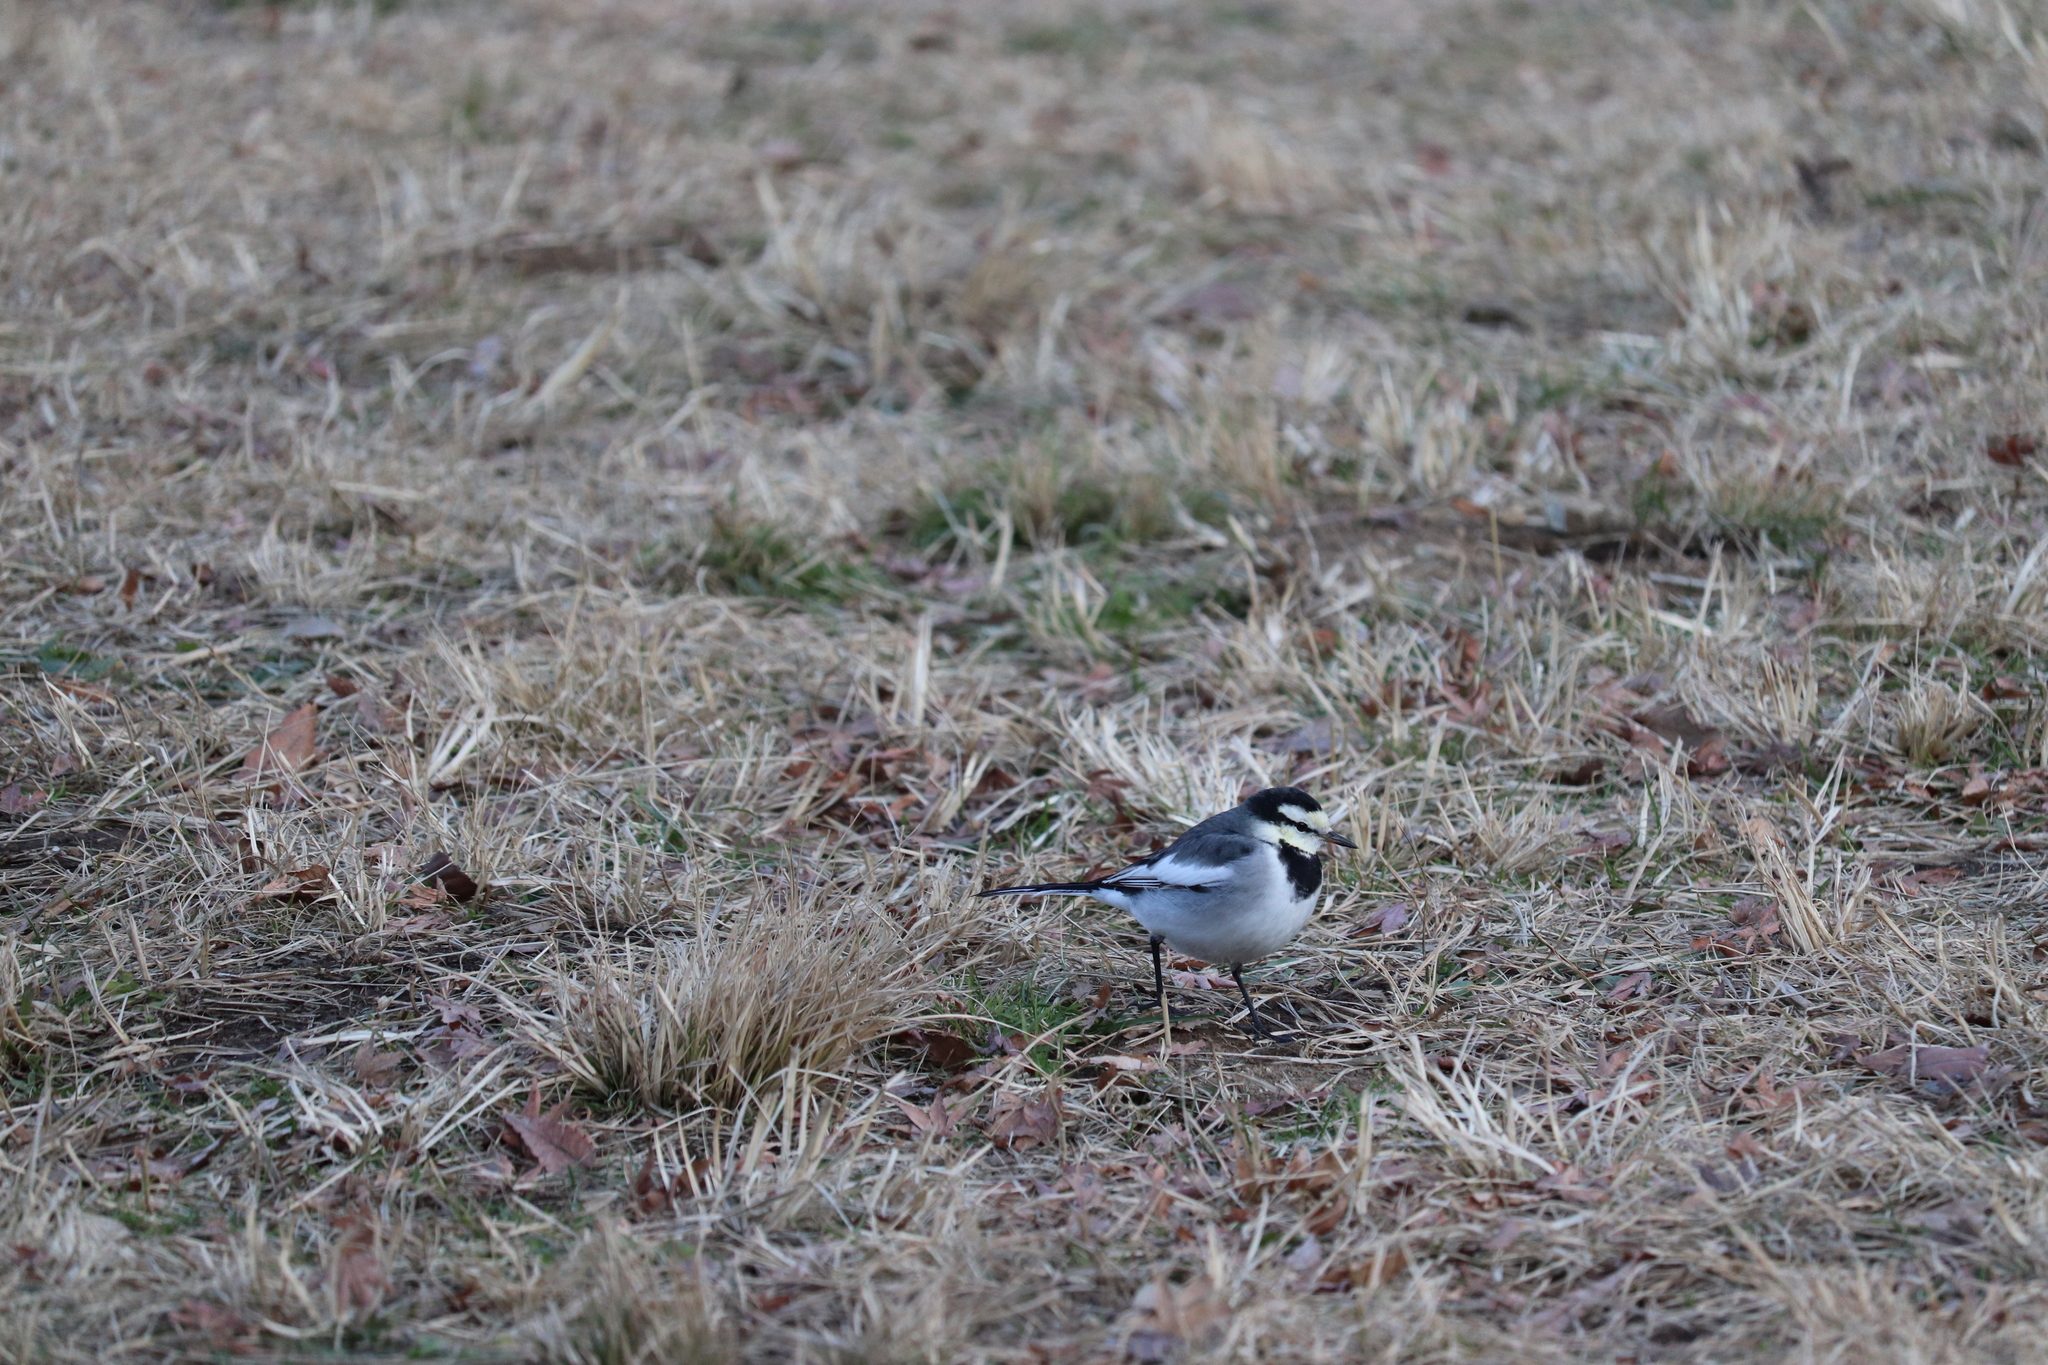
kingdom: Animalia
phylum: Chordata
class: Aves
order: Passeriformes
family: Motacillidae
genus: Motacilla
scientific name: Motacilla alba
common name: White wagtail
